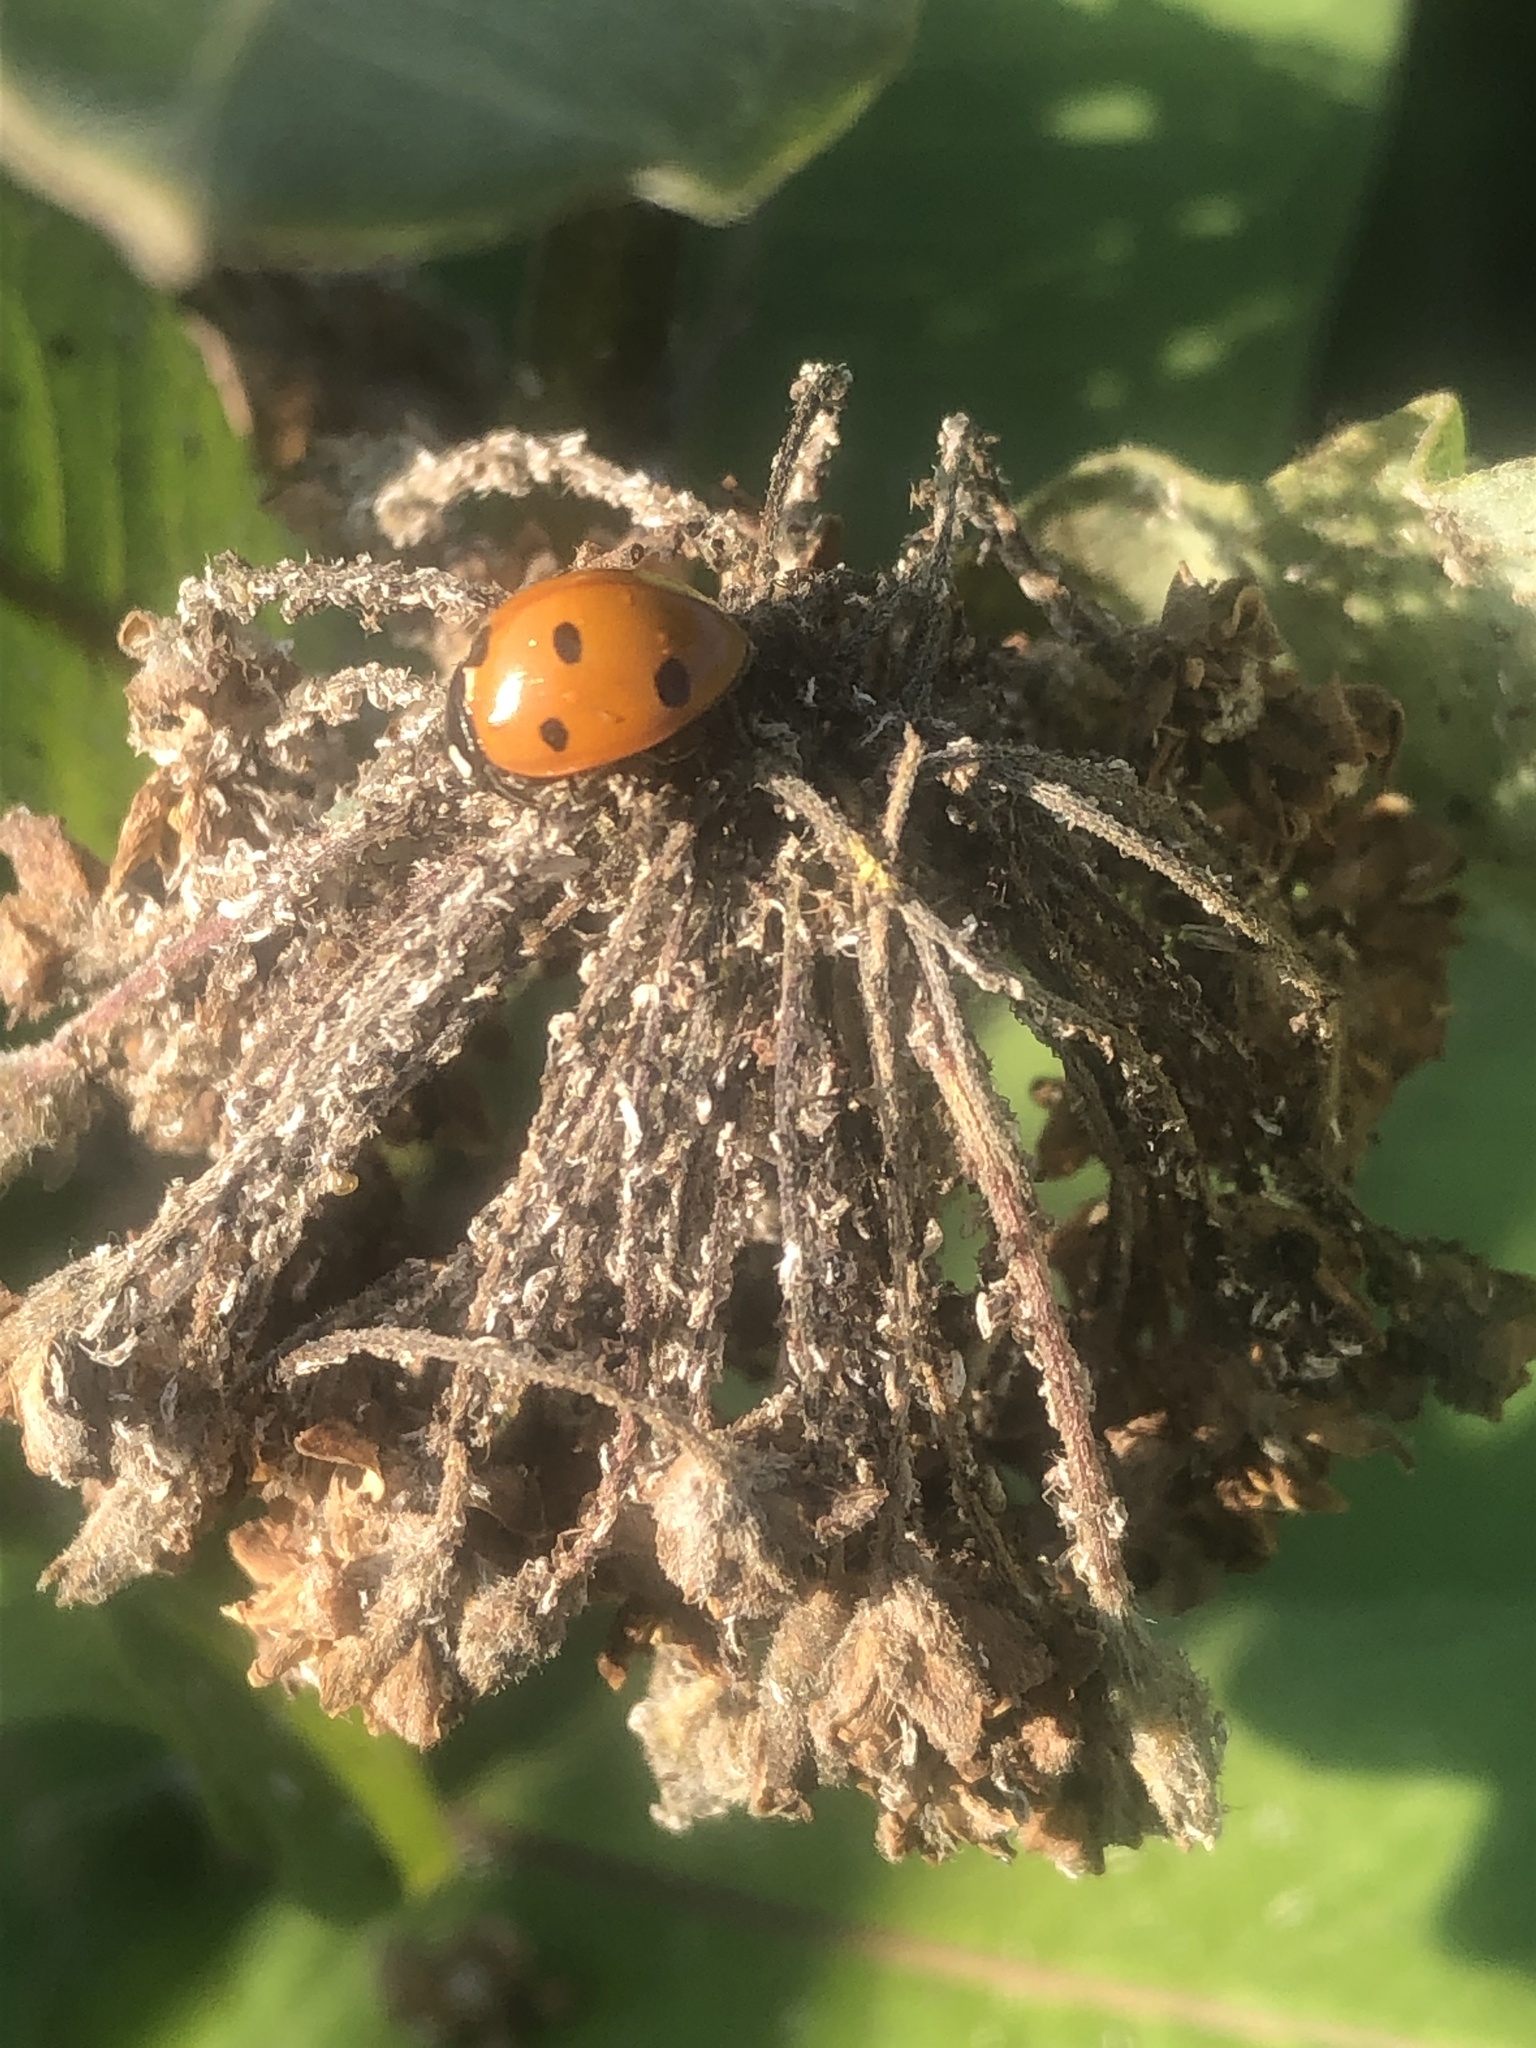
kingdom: Animalia
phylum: Arthropoda
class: Insecta
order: Coleoptera
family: Coccinellidae
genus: Coccinella
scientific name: Coccinella septempunctata
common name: Sevenspotted lady beetle
